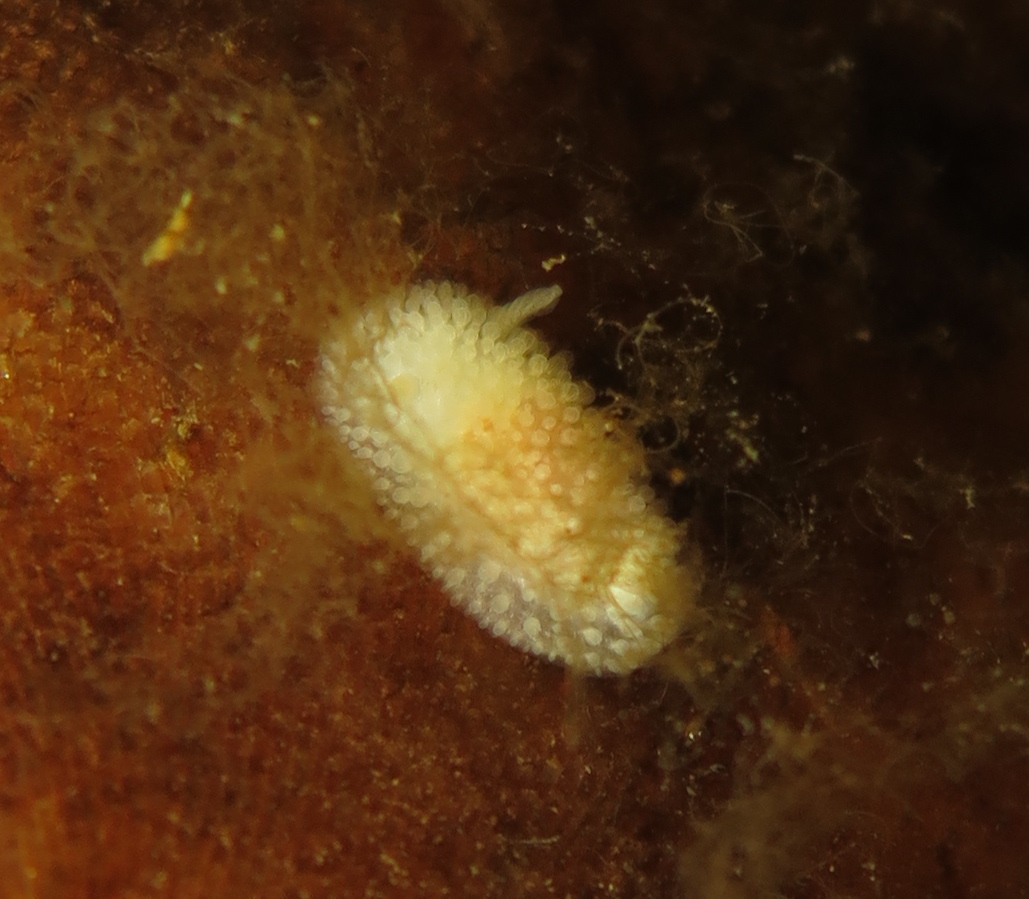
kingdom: Animalia
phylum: Mollusca
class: Gastropoda
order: Nudibranchia
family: Onchidorididae
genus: Onchidoris
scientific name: Onchidoris muricata
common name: Rough doris
